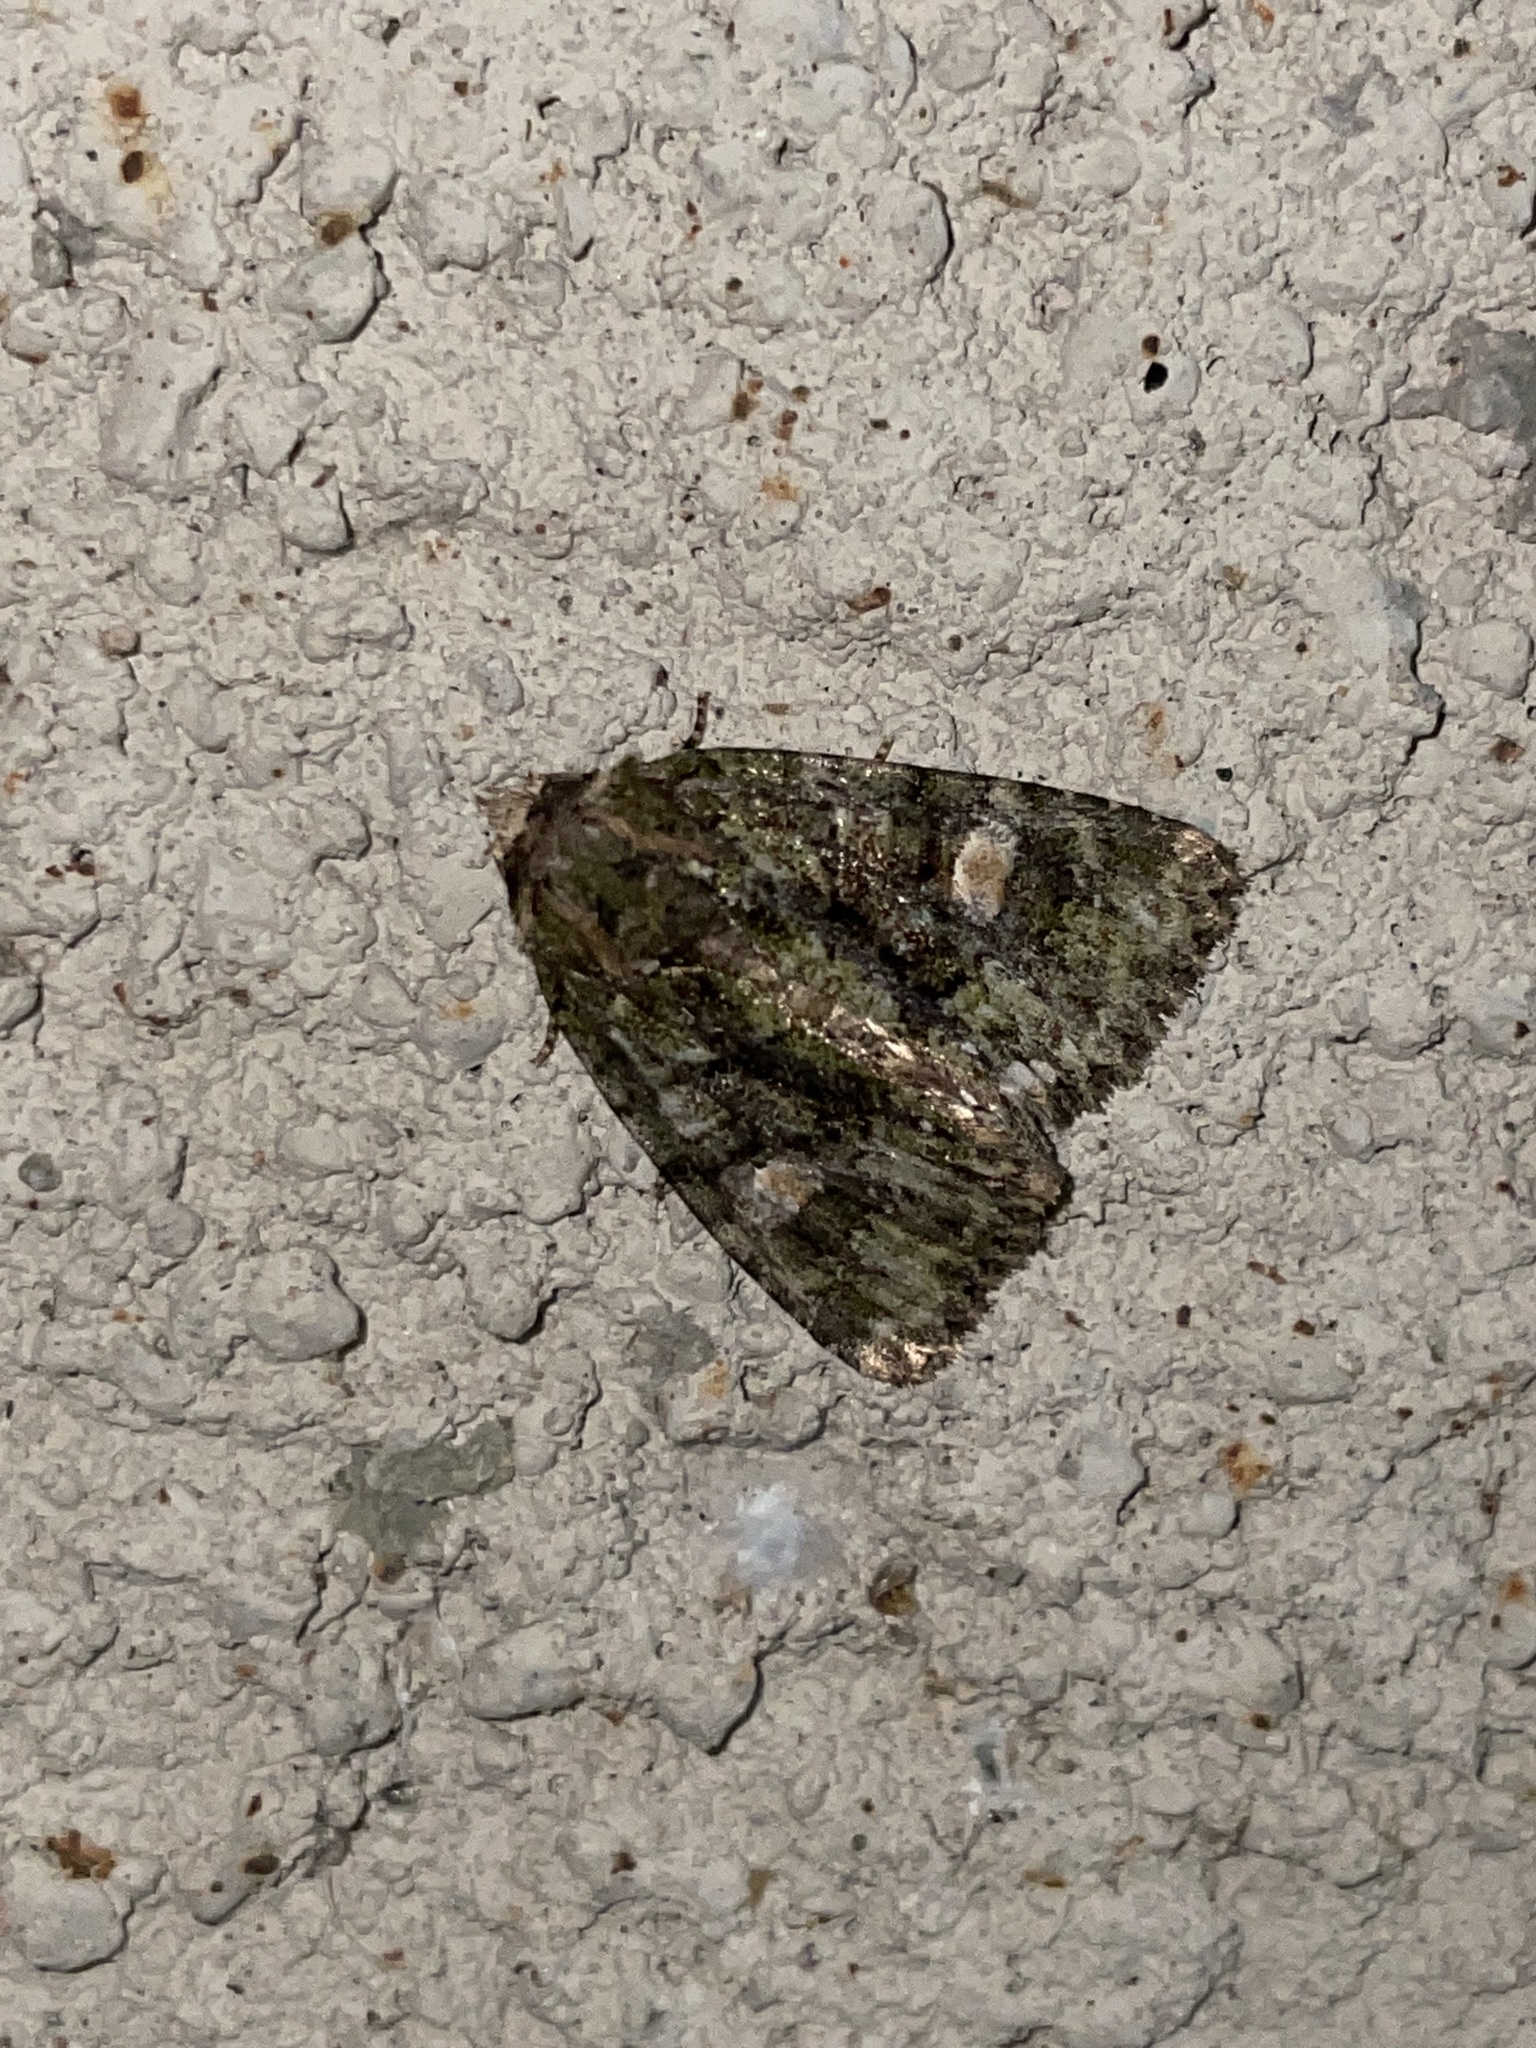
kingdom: Animalia
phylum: Arthropoda
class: Insecta
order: Lepidoptera
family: Noctuidae
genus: Phosphila
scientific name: Phosphila miselioides
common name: Spotted phosphila moth
